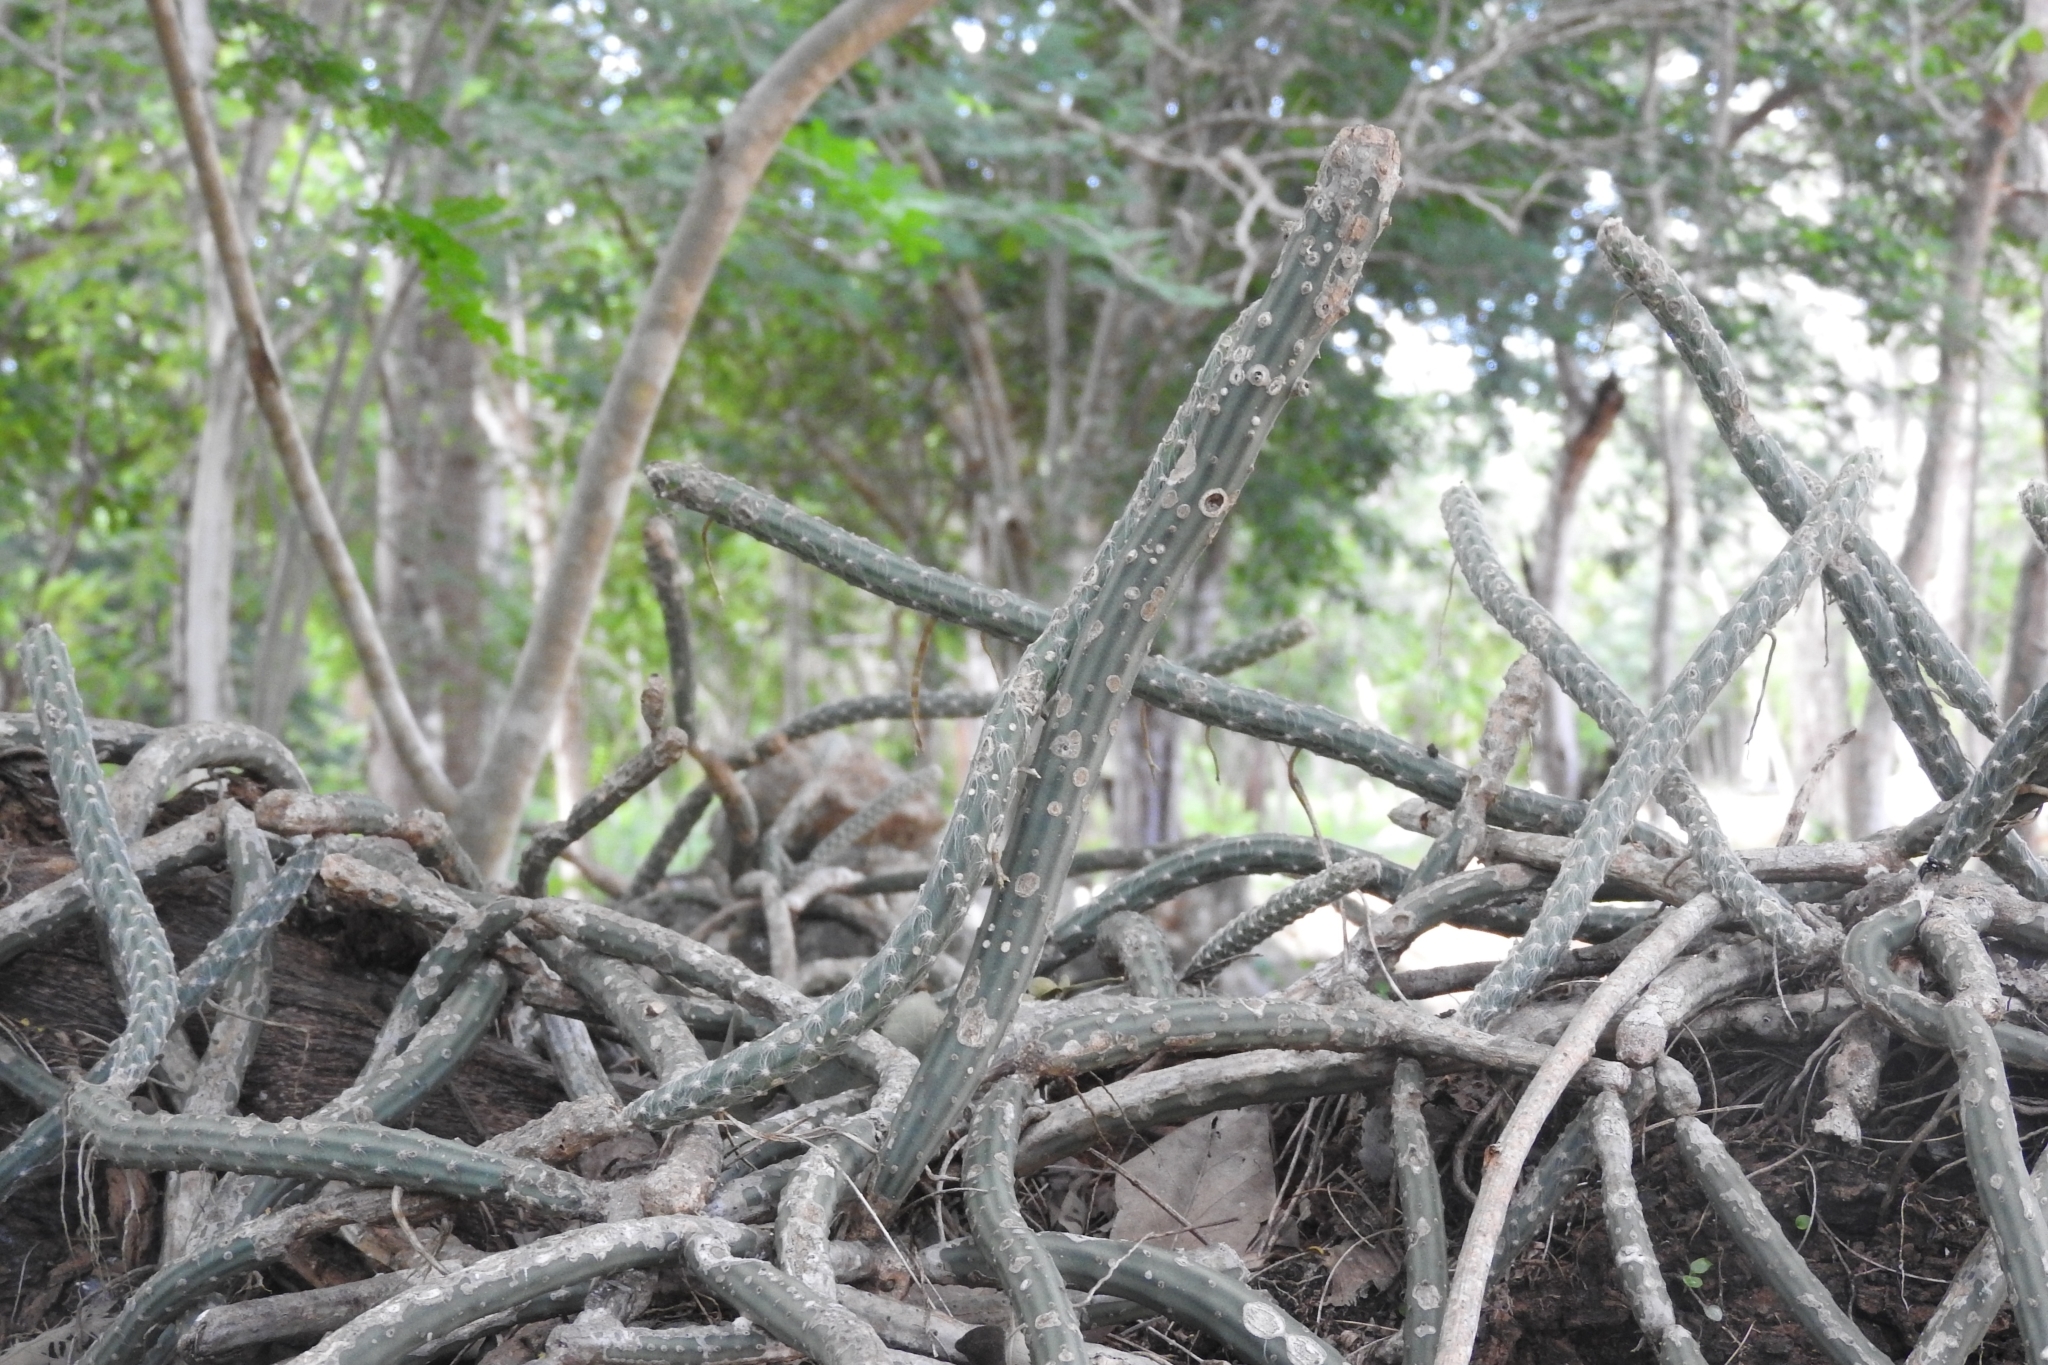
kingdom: Plantae
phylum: Tracheophyta
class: Magnoliopsida
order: Caryophyllales
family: Cactaceae
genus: Selenicereus
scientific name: Selenicereus grandiflorus
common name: Queen of the night
